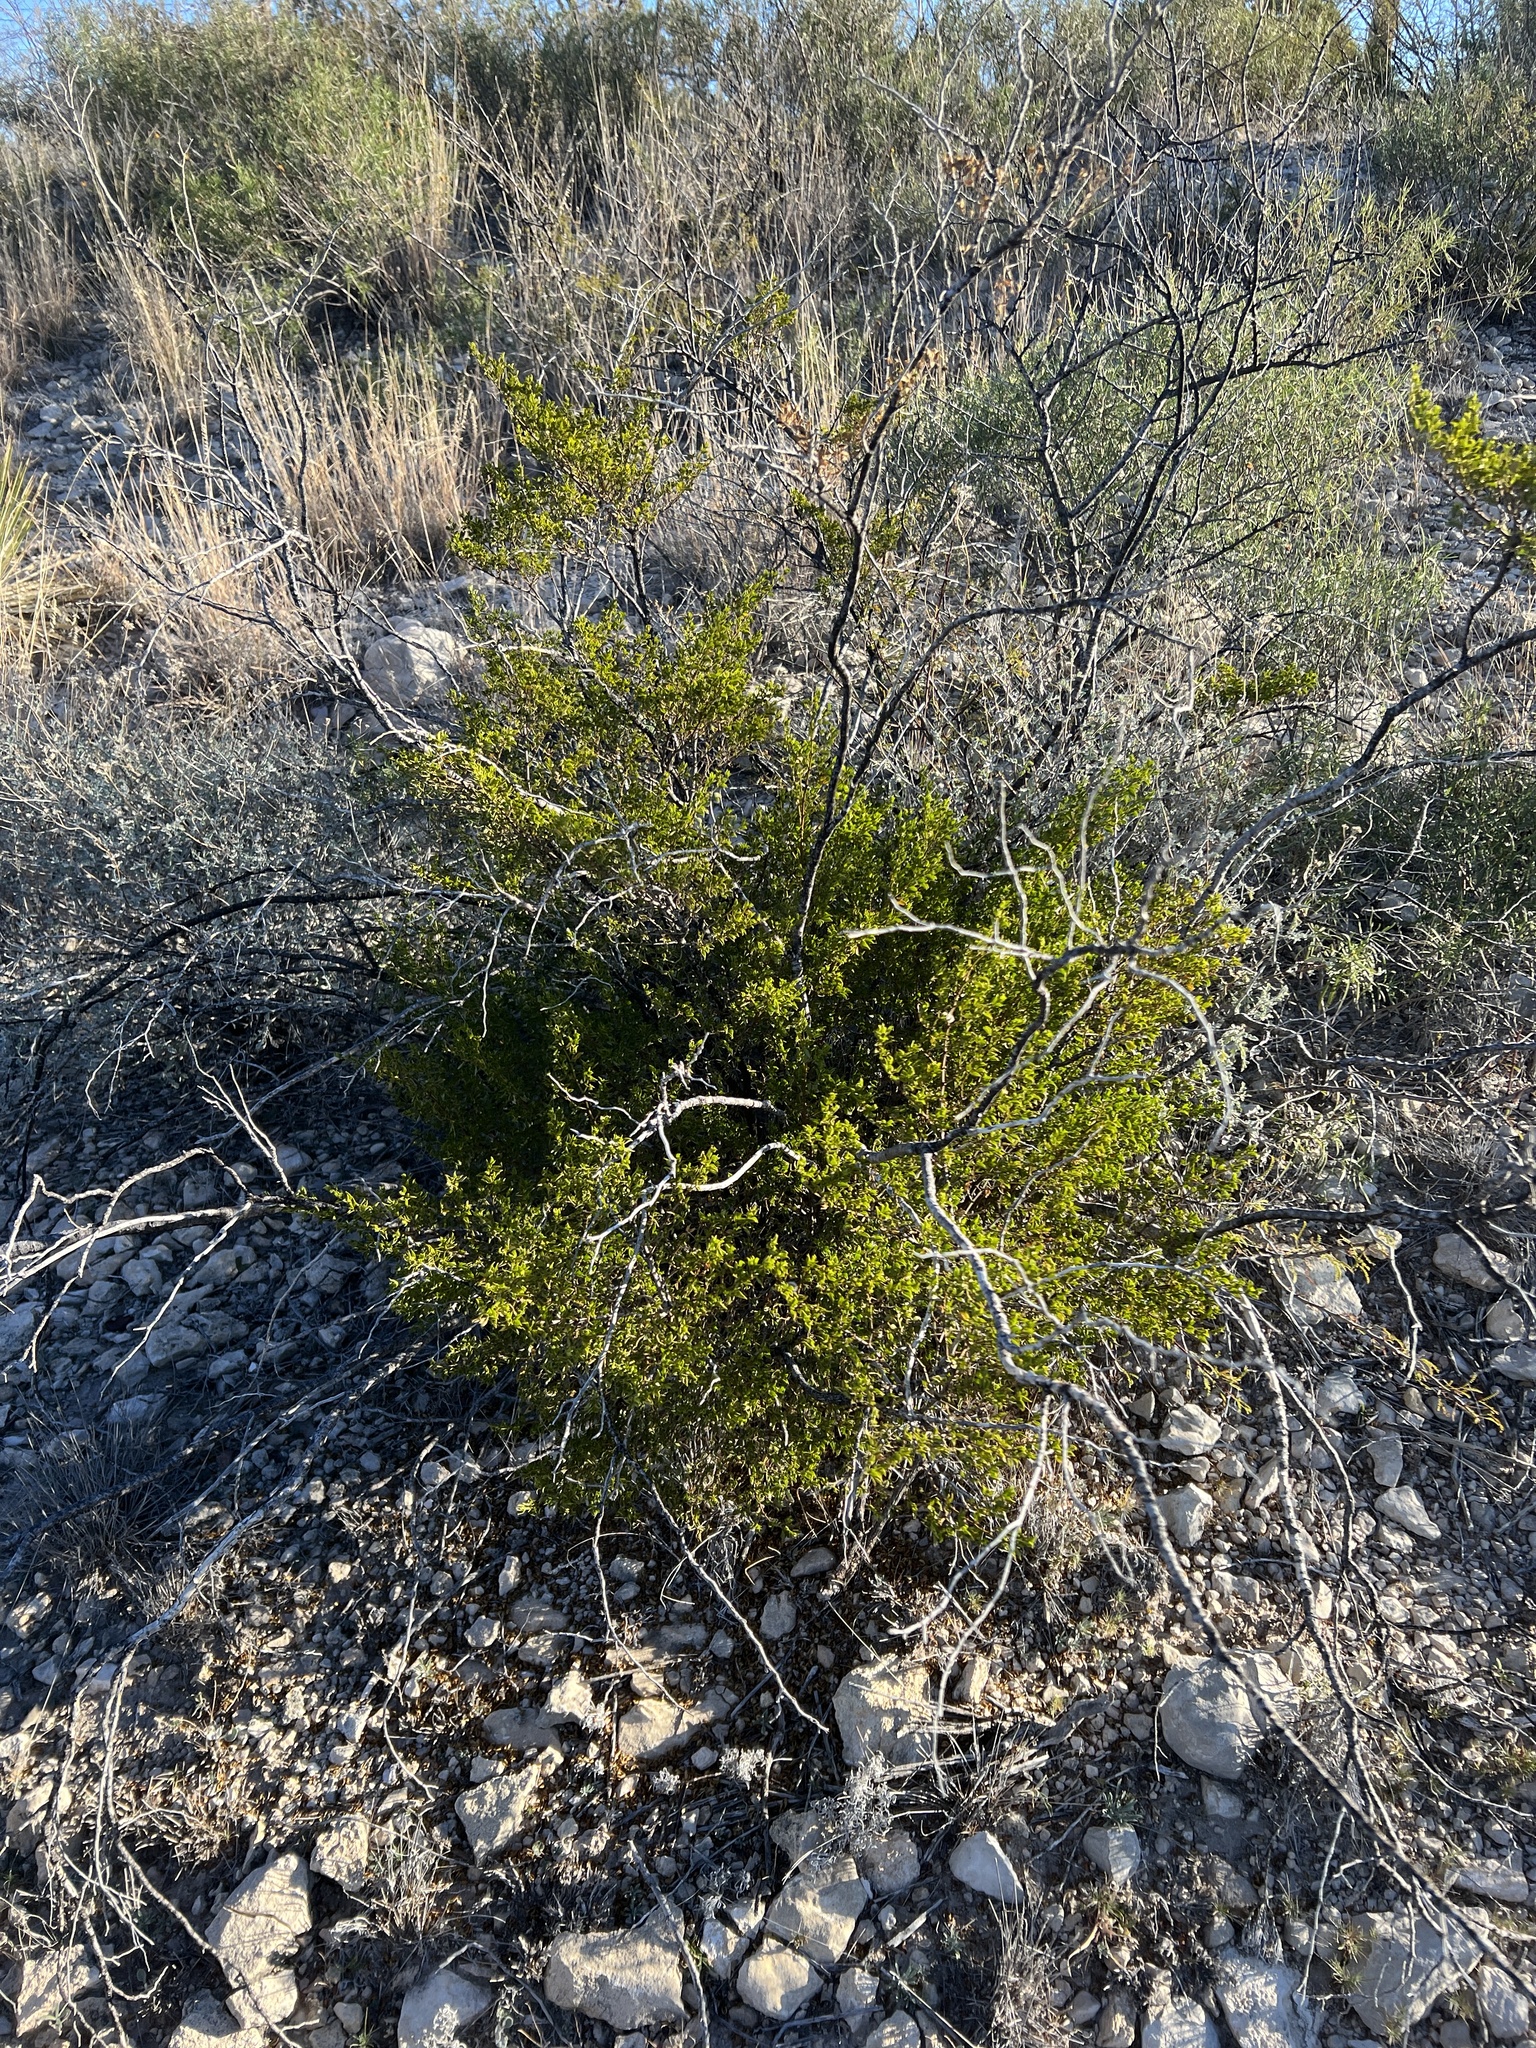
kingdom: Plantae
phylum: Tracheophyta
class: Magnoliopsida
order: Zygophyllales
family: Zygophyllaceae
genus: Larrea
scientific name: Larrea tridentata
